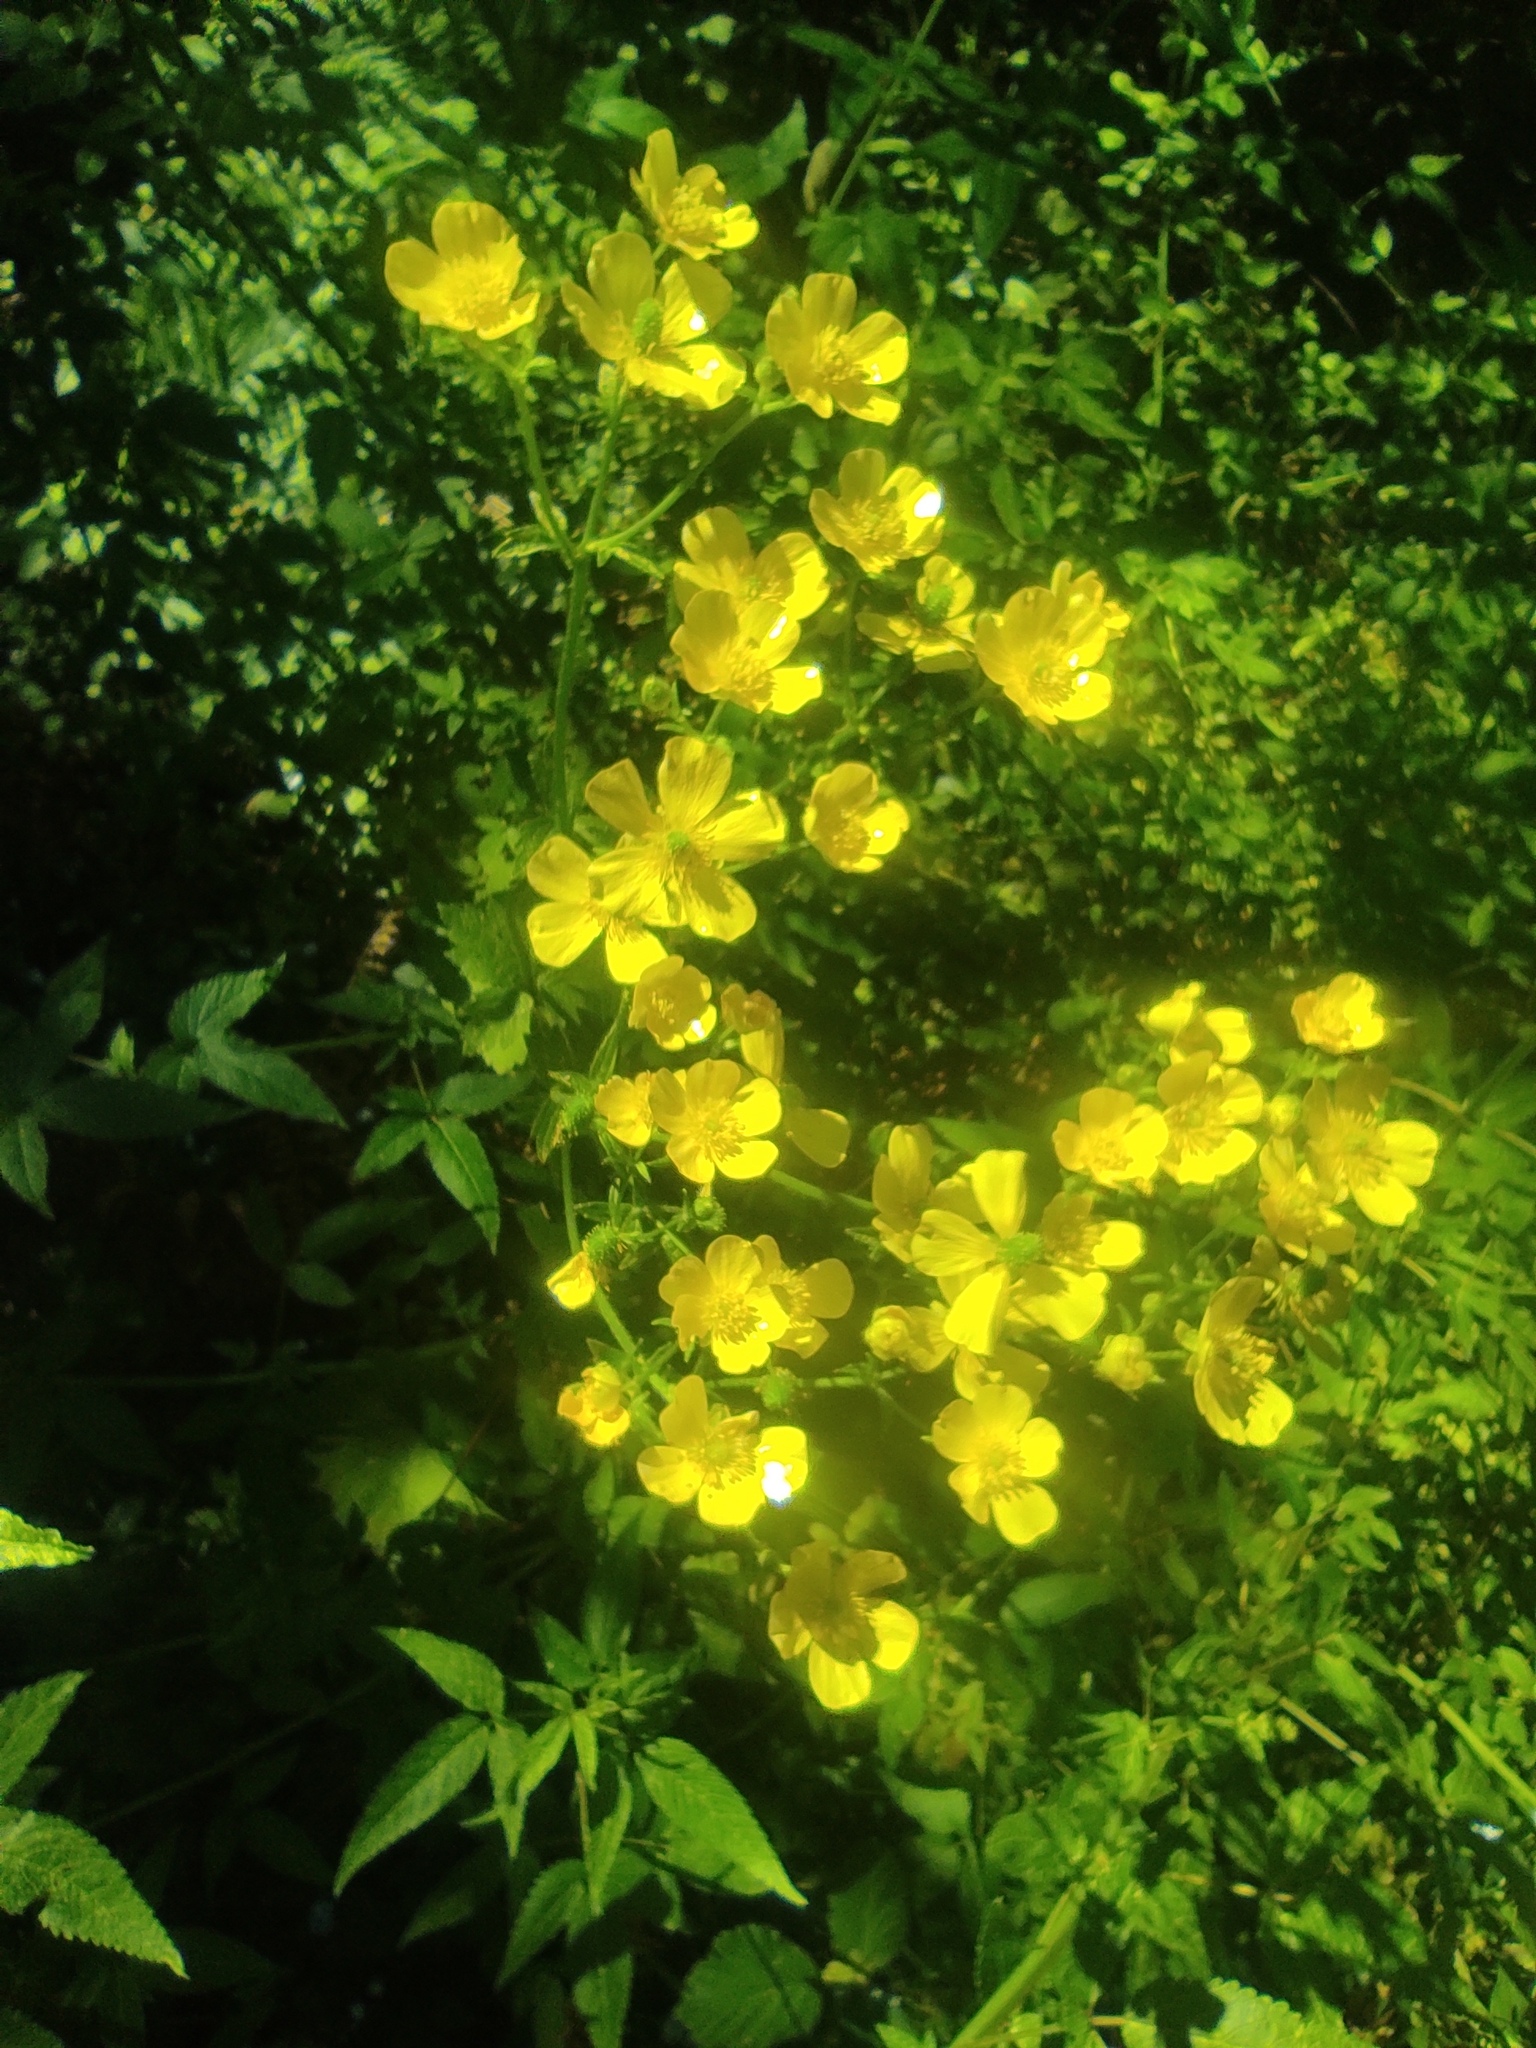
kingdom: Plantae
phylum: Tracheophyta
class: Magnoliopsida
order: Ranunculales
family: Ranunculaceae
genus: Ranunculus
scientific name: Ranunculus cortusifolius
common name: Azores buttercup
